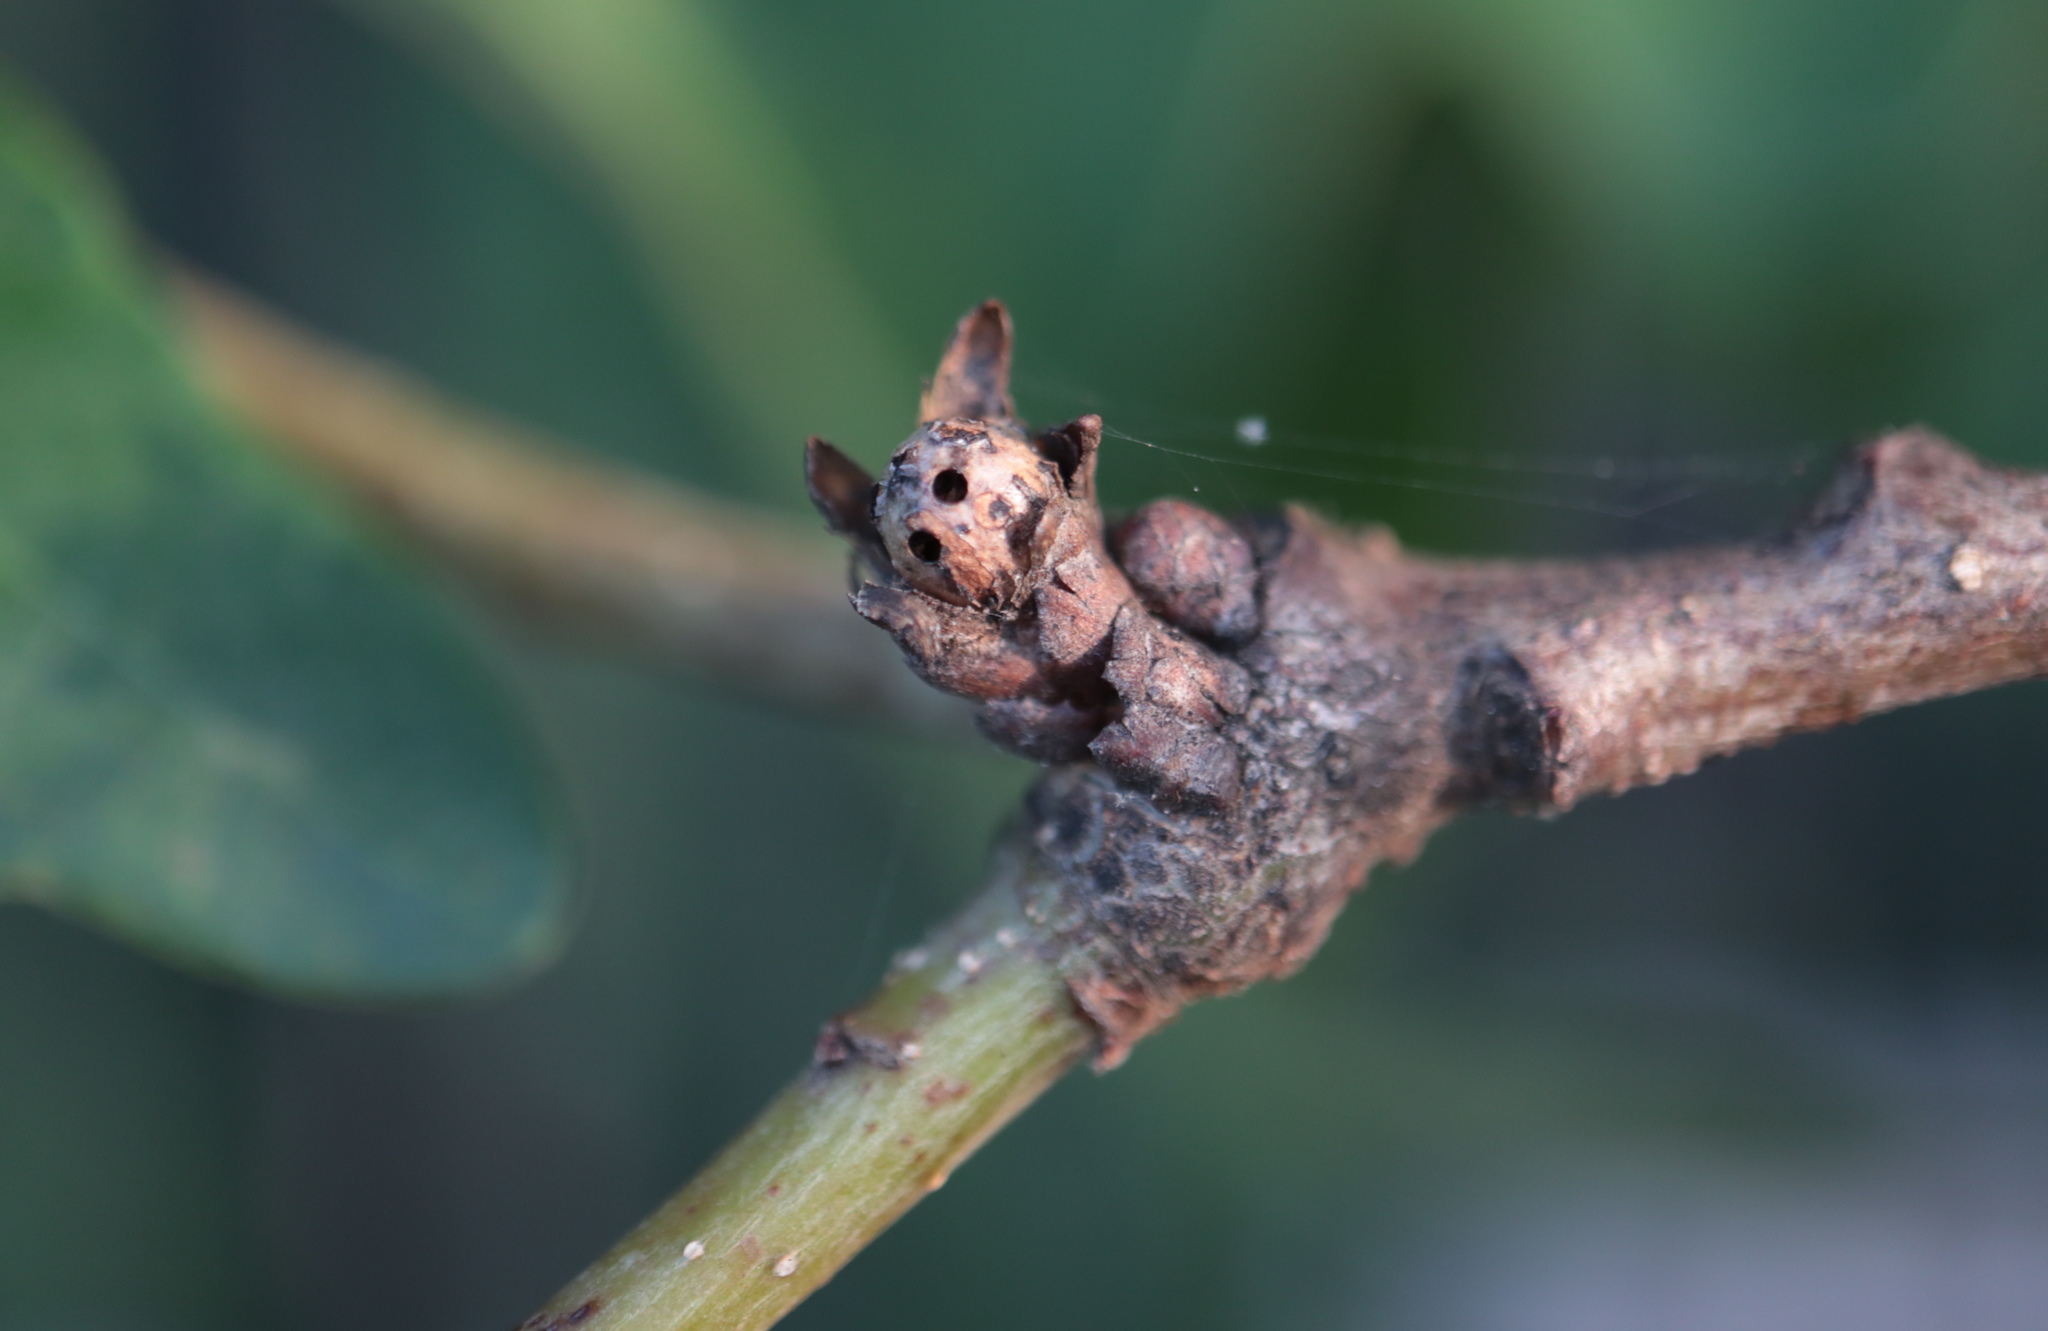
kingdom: Animalia
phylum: Arthropoda
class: Insecta
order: Hymenoptera
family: Cynipidae
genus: Andricus
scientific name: Andricus
